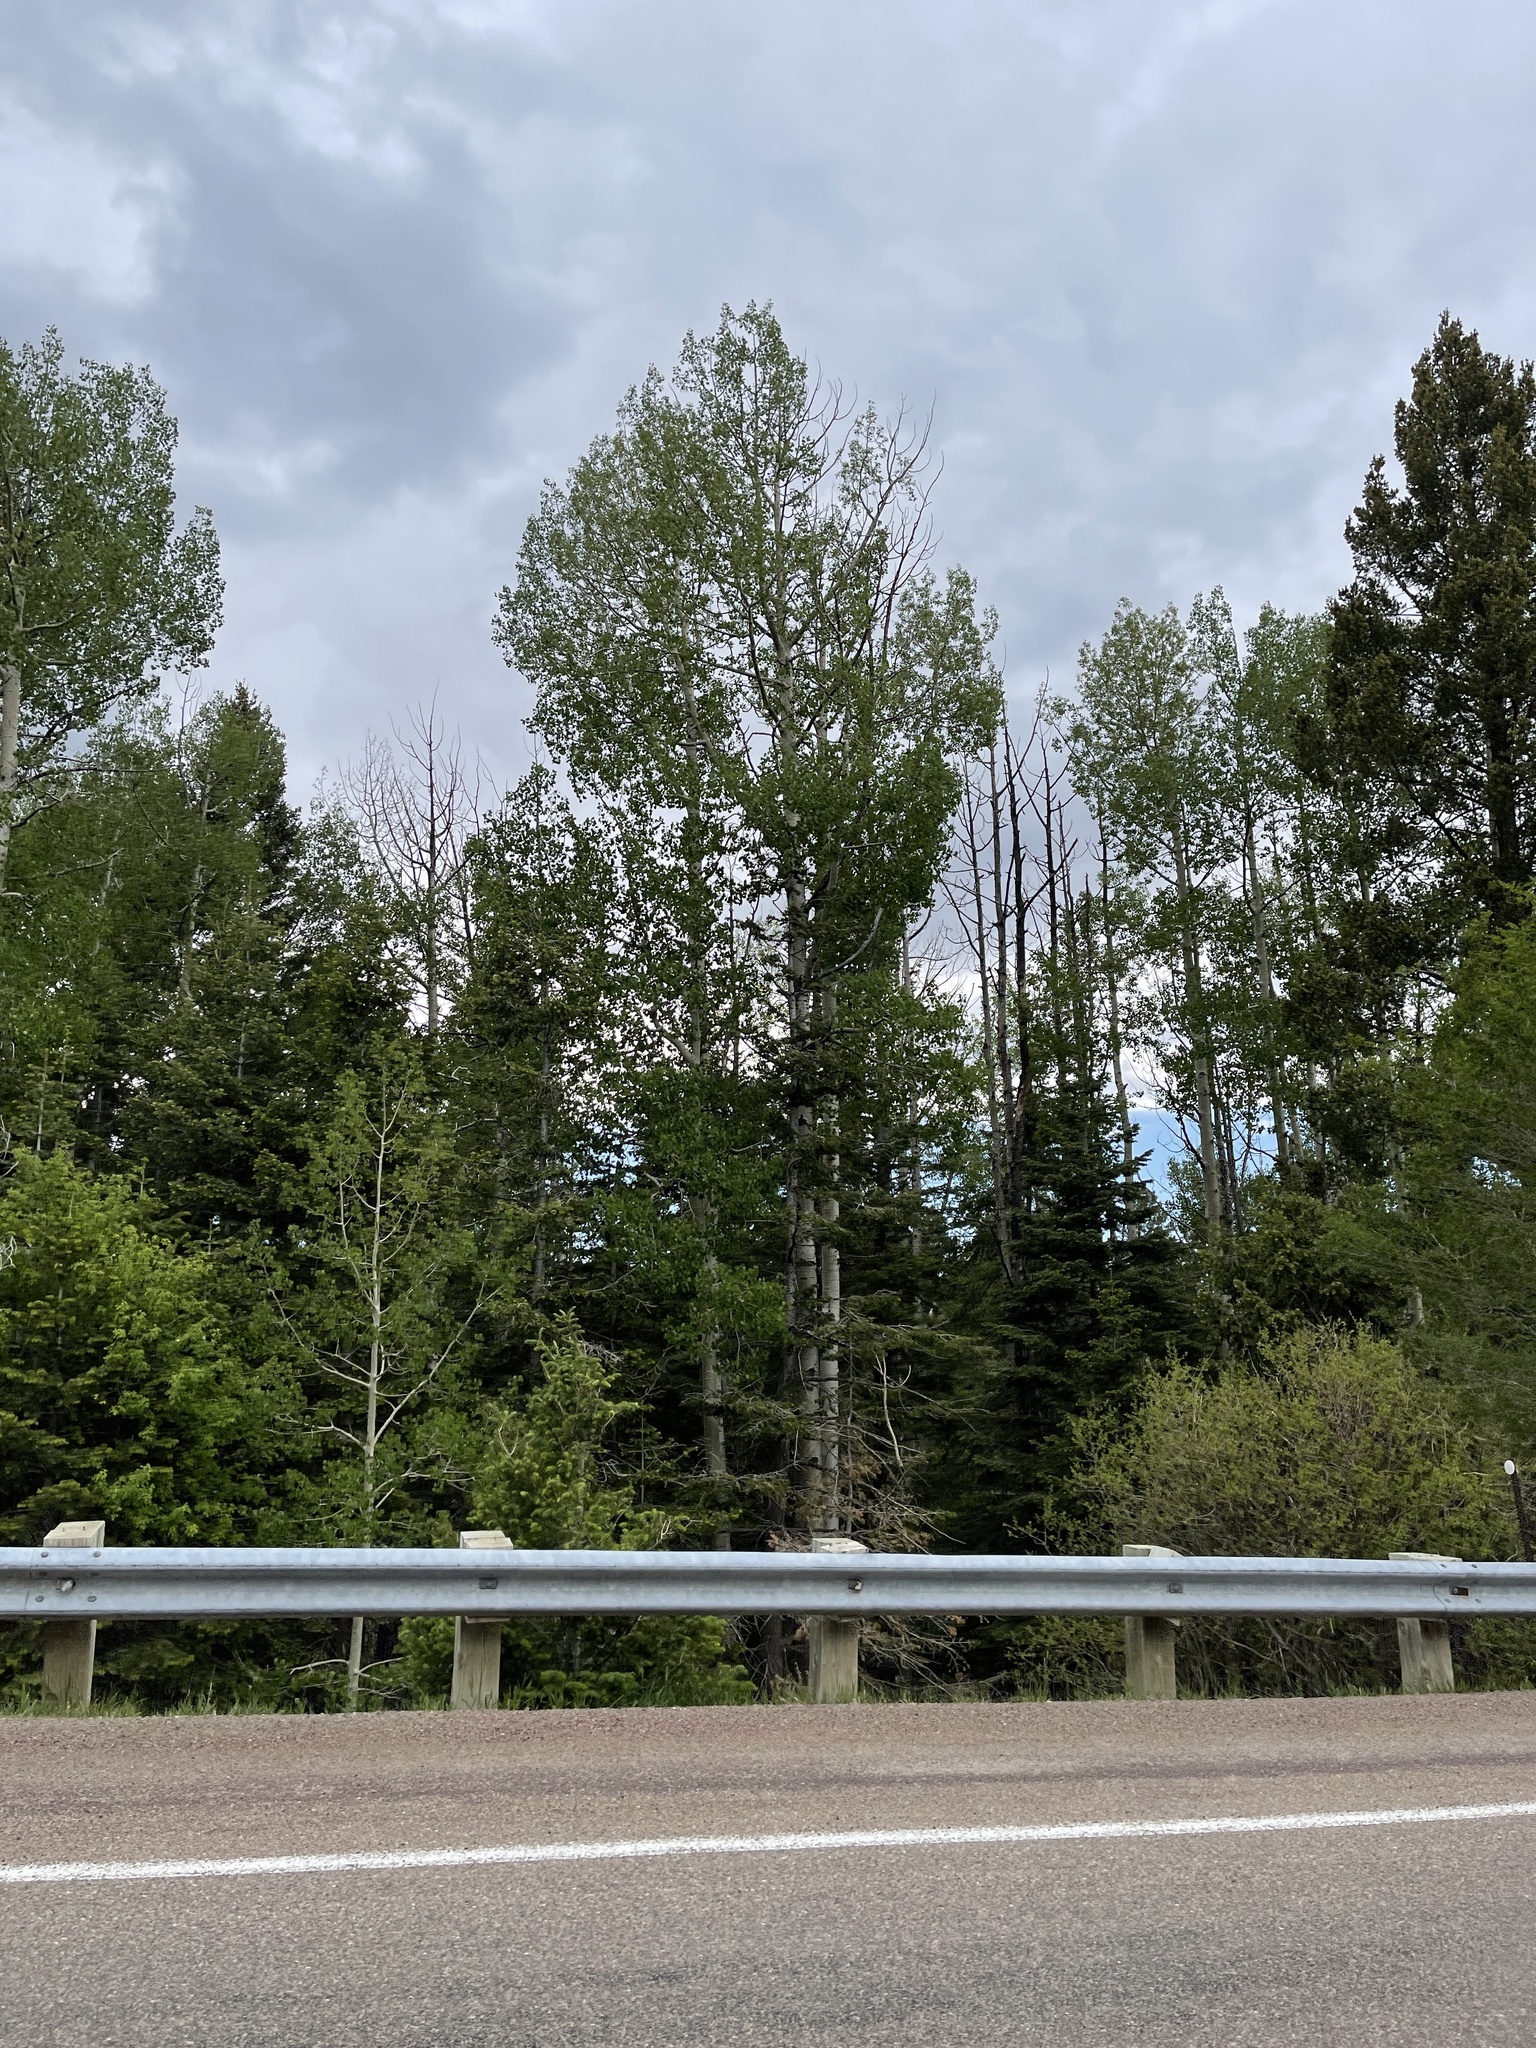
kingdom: Plantae
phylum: Tracheophyta
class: Magnoliopsida
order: Malpighiales
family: Salicaceae
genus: Populus
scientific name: Populus tremuloides
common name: Quaking aspen
